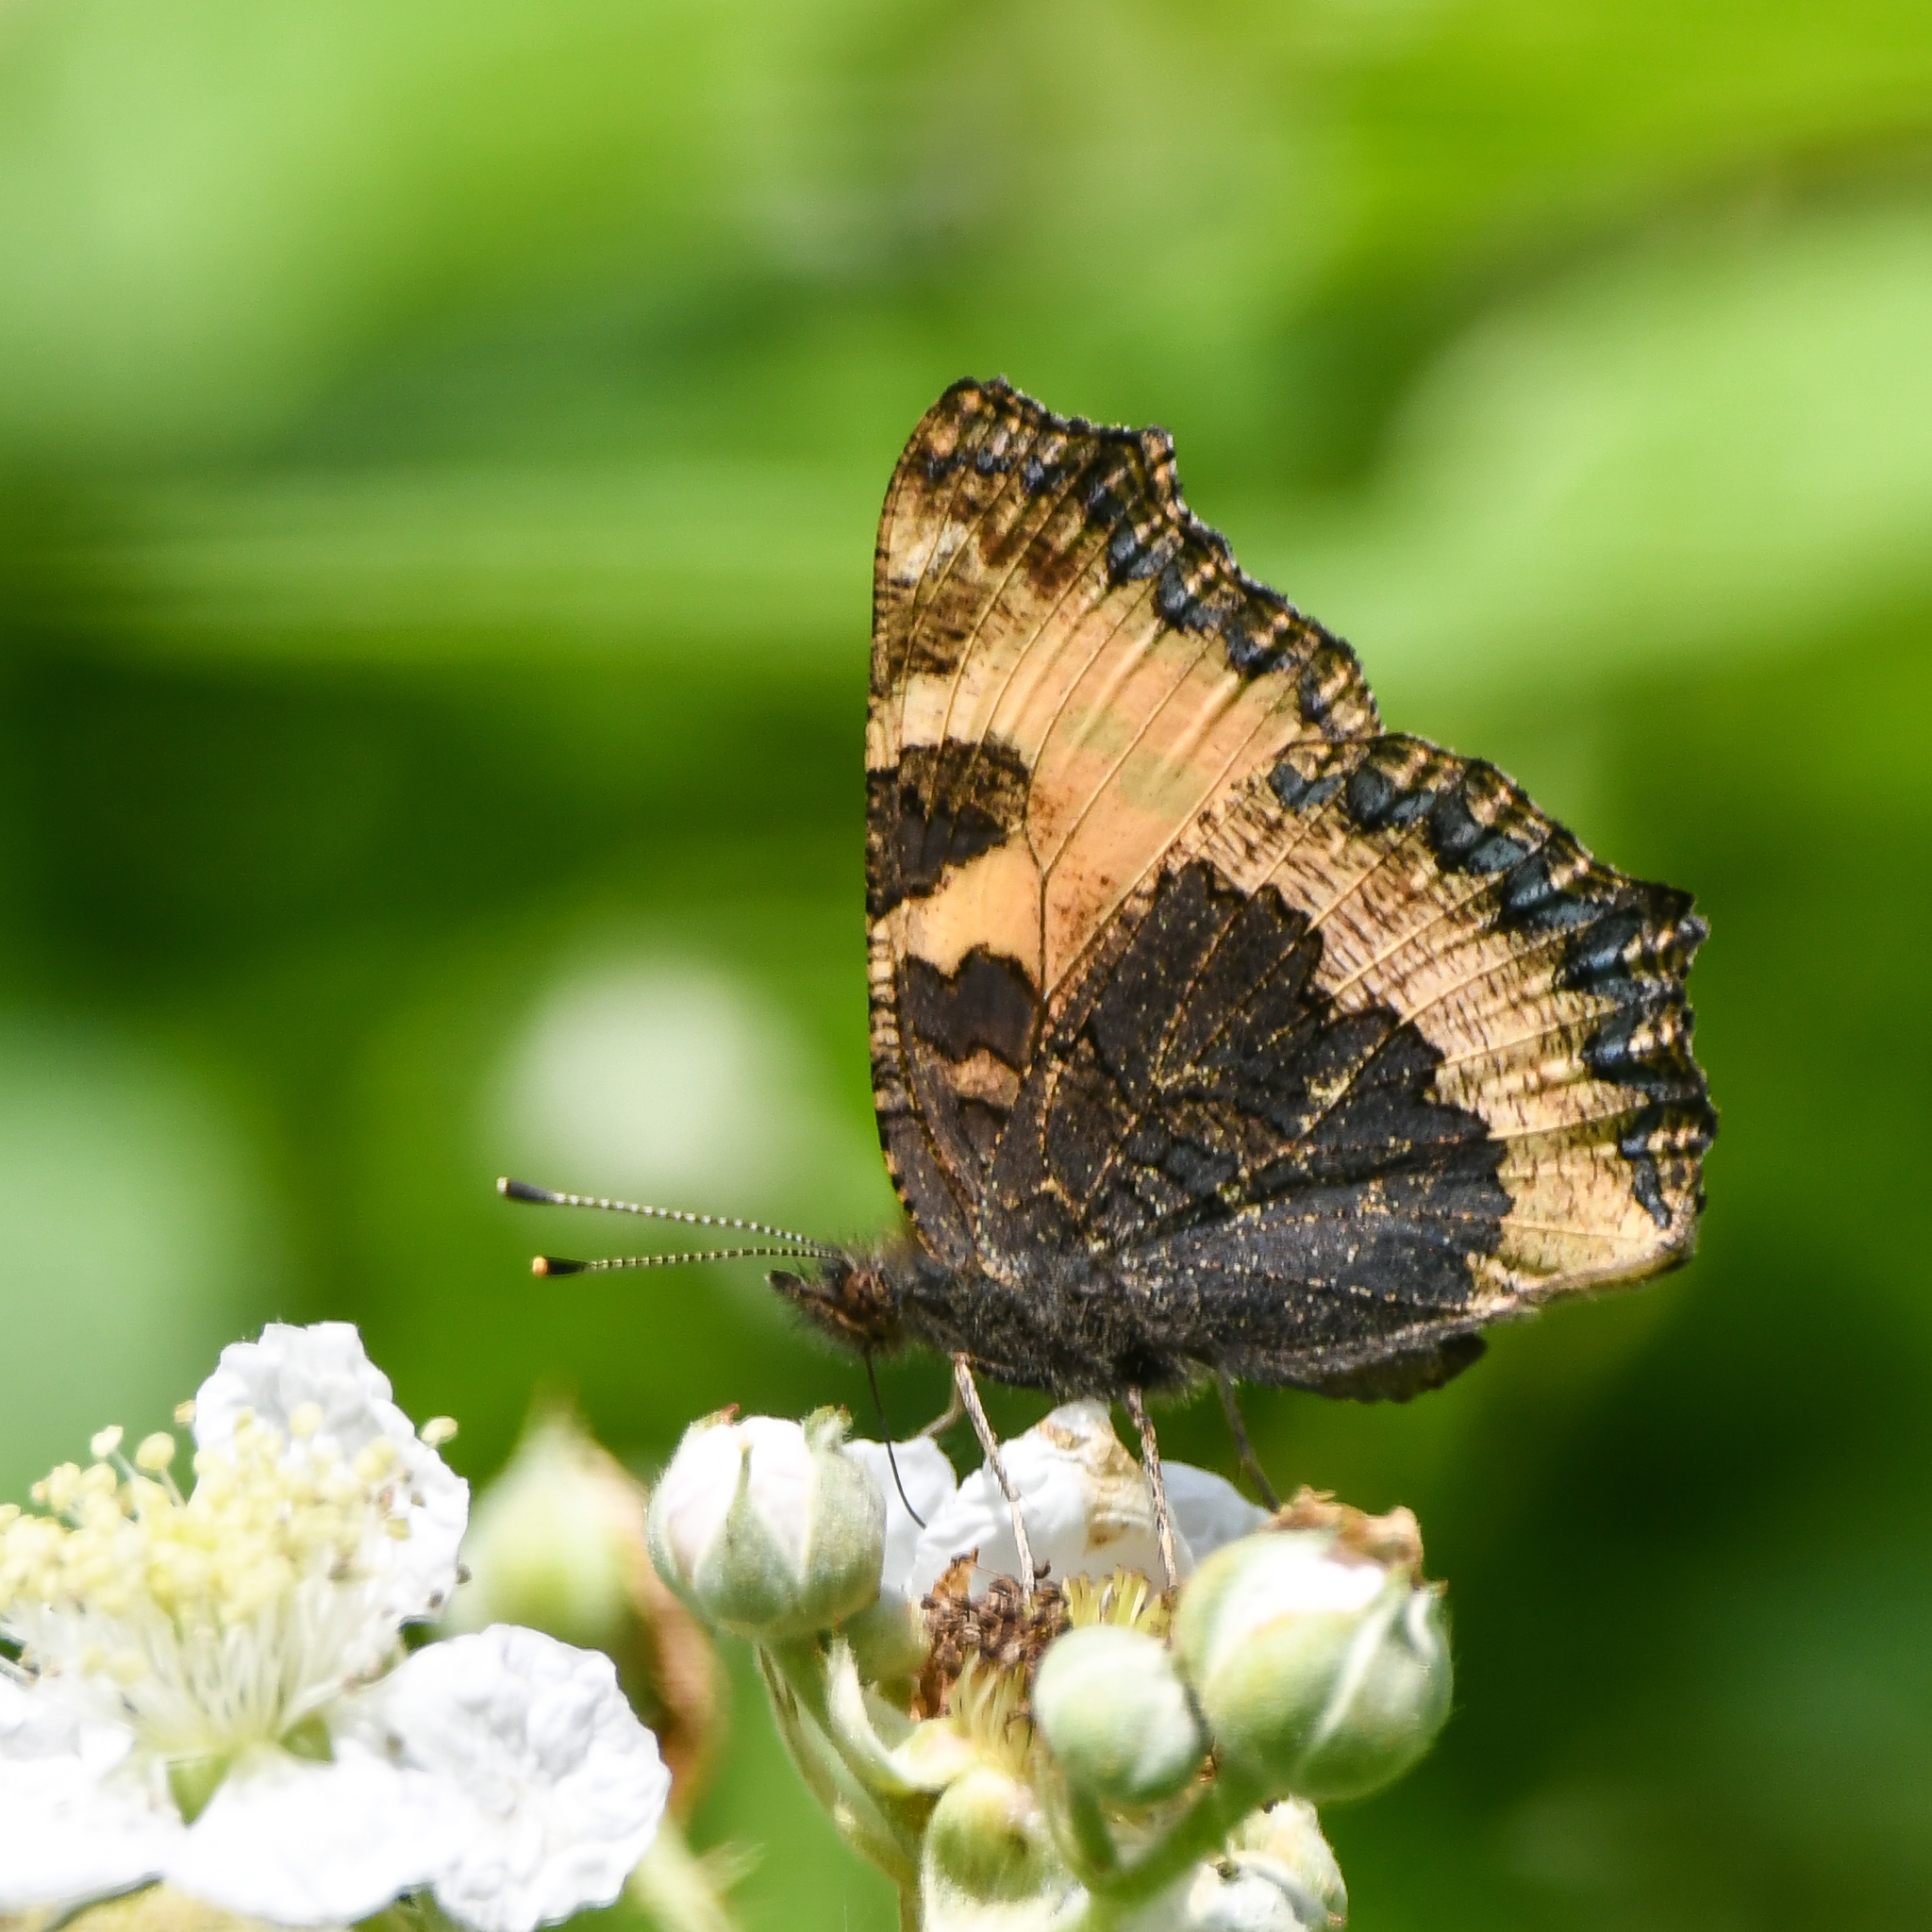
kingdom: Animalia
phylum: Arthropoda
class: Insecta
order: Lepidoptera
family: Nymphalidae
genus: Aglais
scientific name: Aglais urticae
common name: Small tortoiseshell
